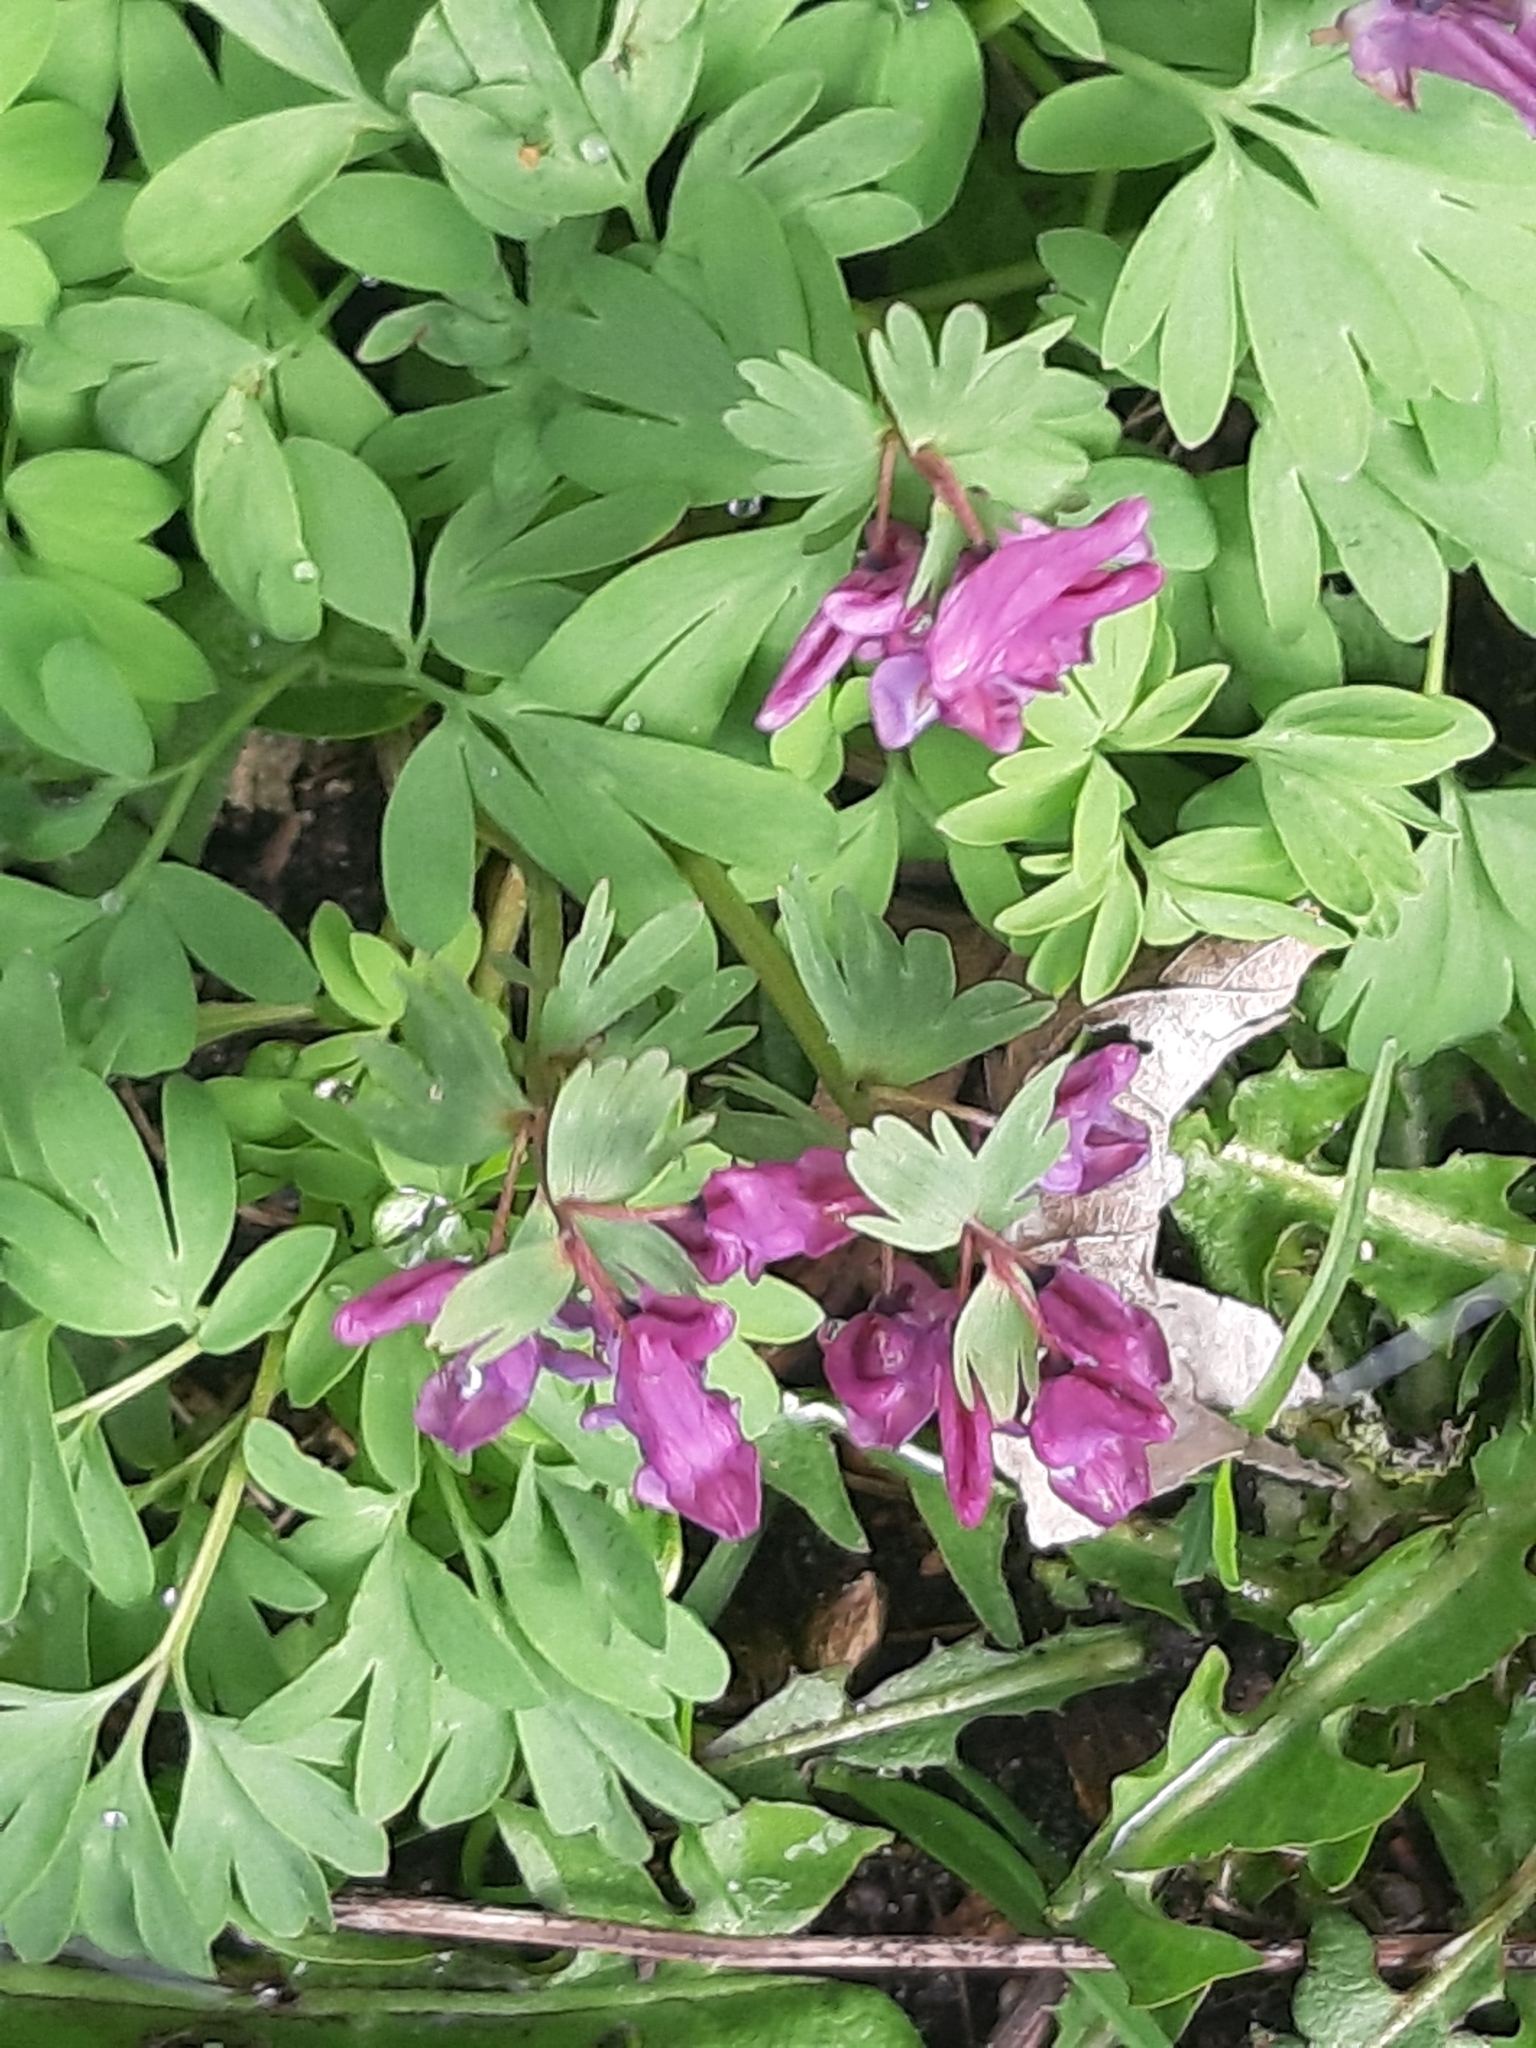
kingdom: Plantae
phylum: Tracheophyta
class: Magnoliopsida
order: Ranunculales
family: Papaveraceae
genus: Corydalis
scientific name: Corydalis solida
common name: Bird-in-a-bush
